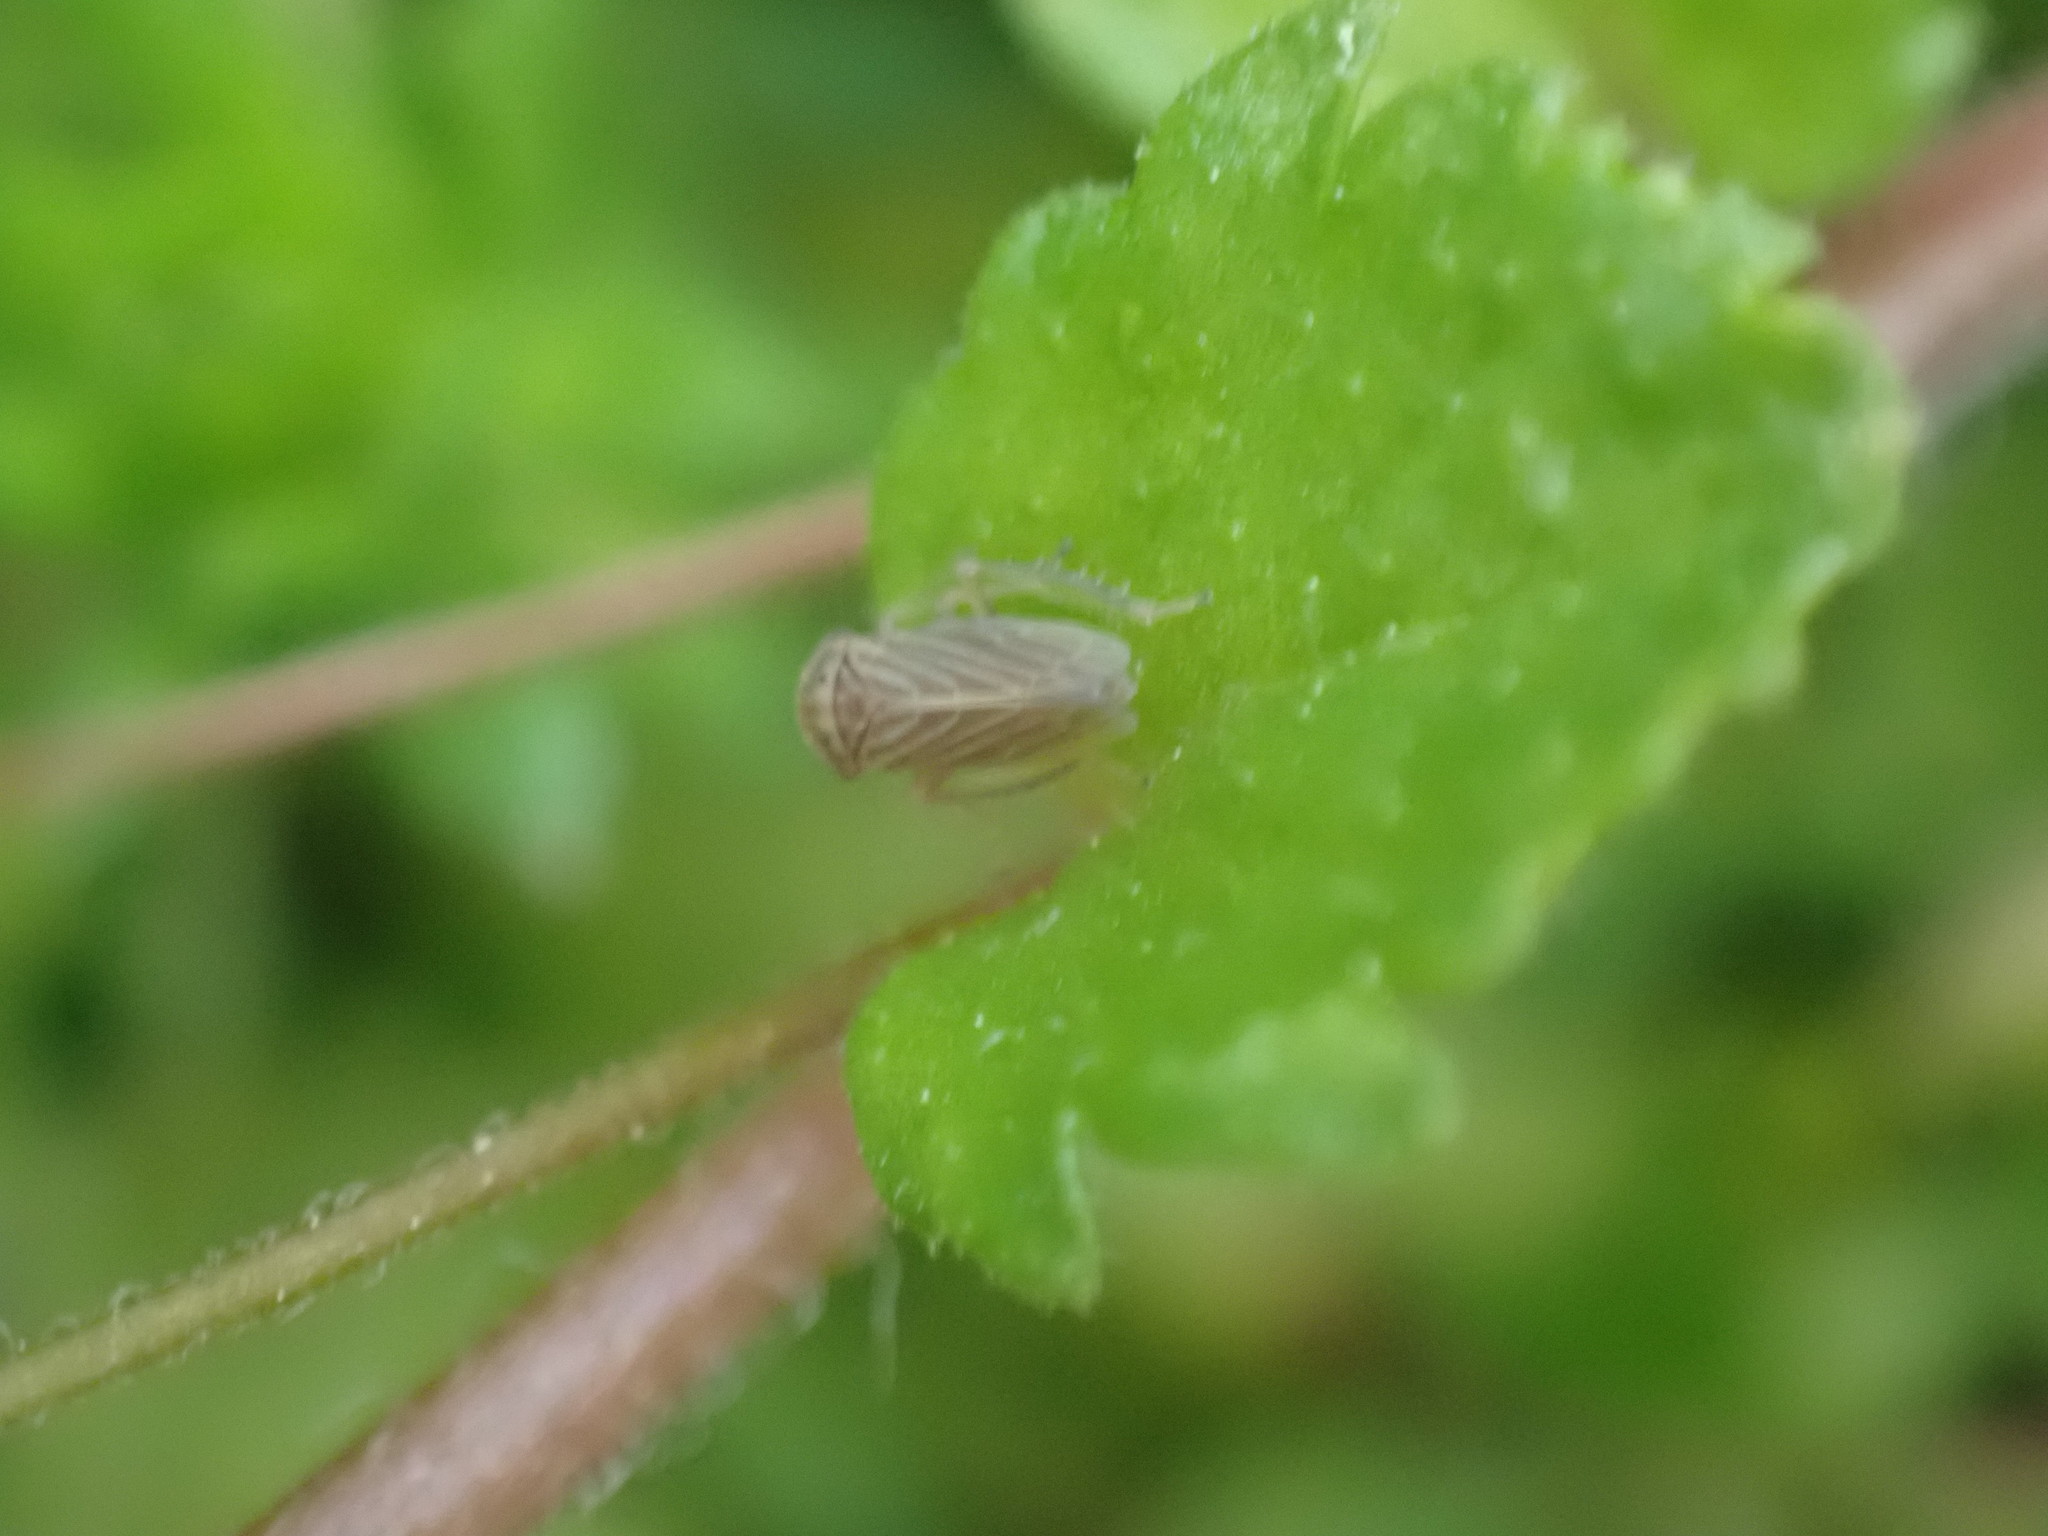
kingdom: Animalia
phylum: Arthropoda
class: Insecta
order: Hemiptera
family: Cicadellidae
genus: Agallia
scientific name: Agallia constricta
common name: The constricted leafhopper
